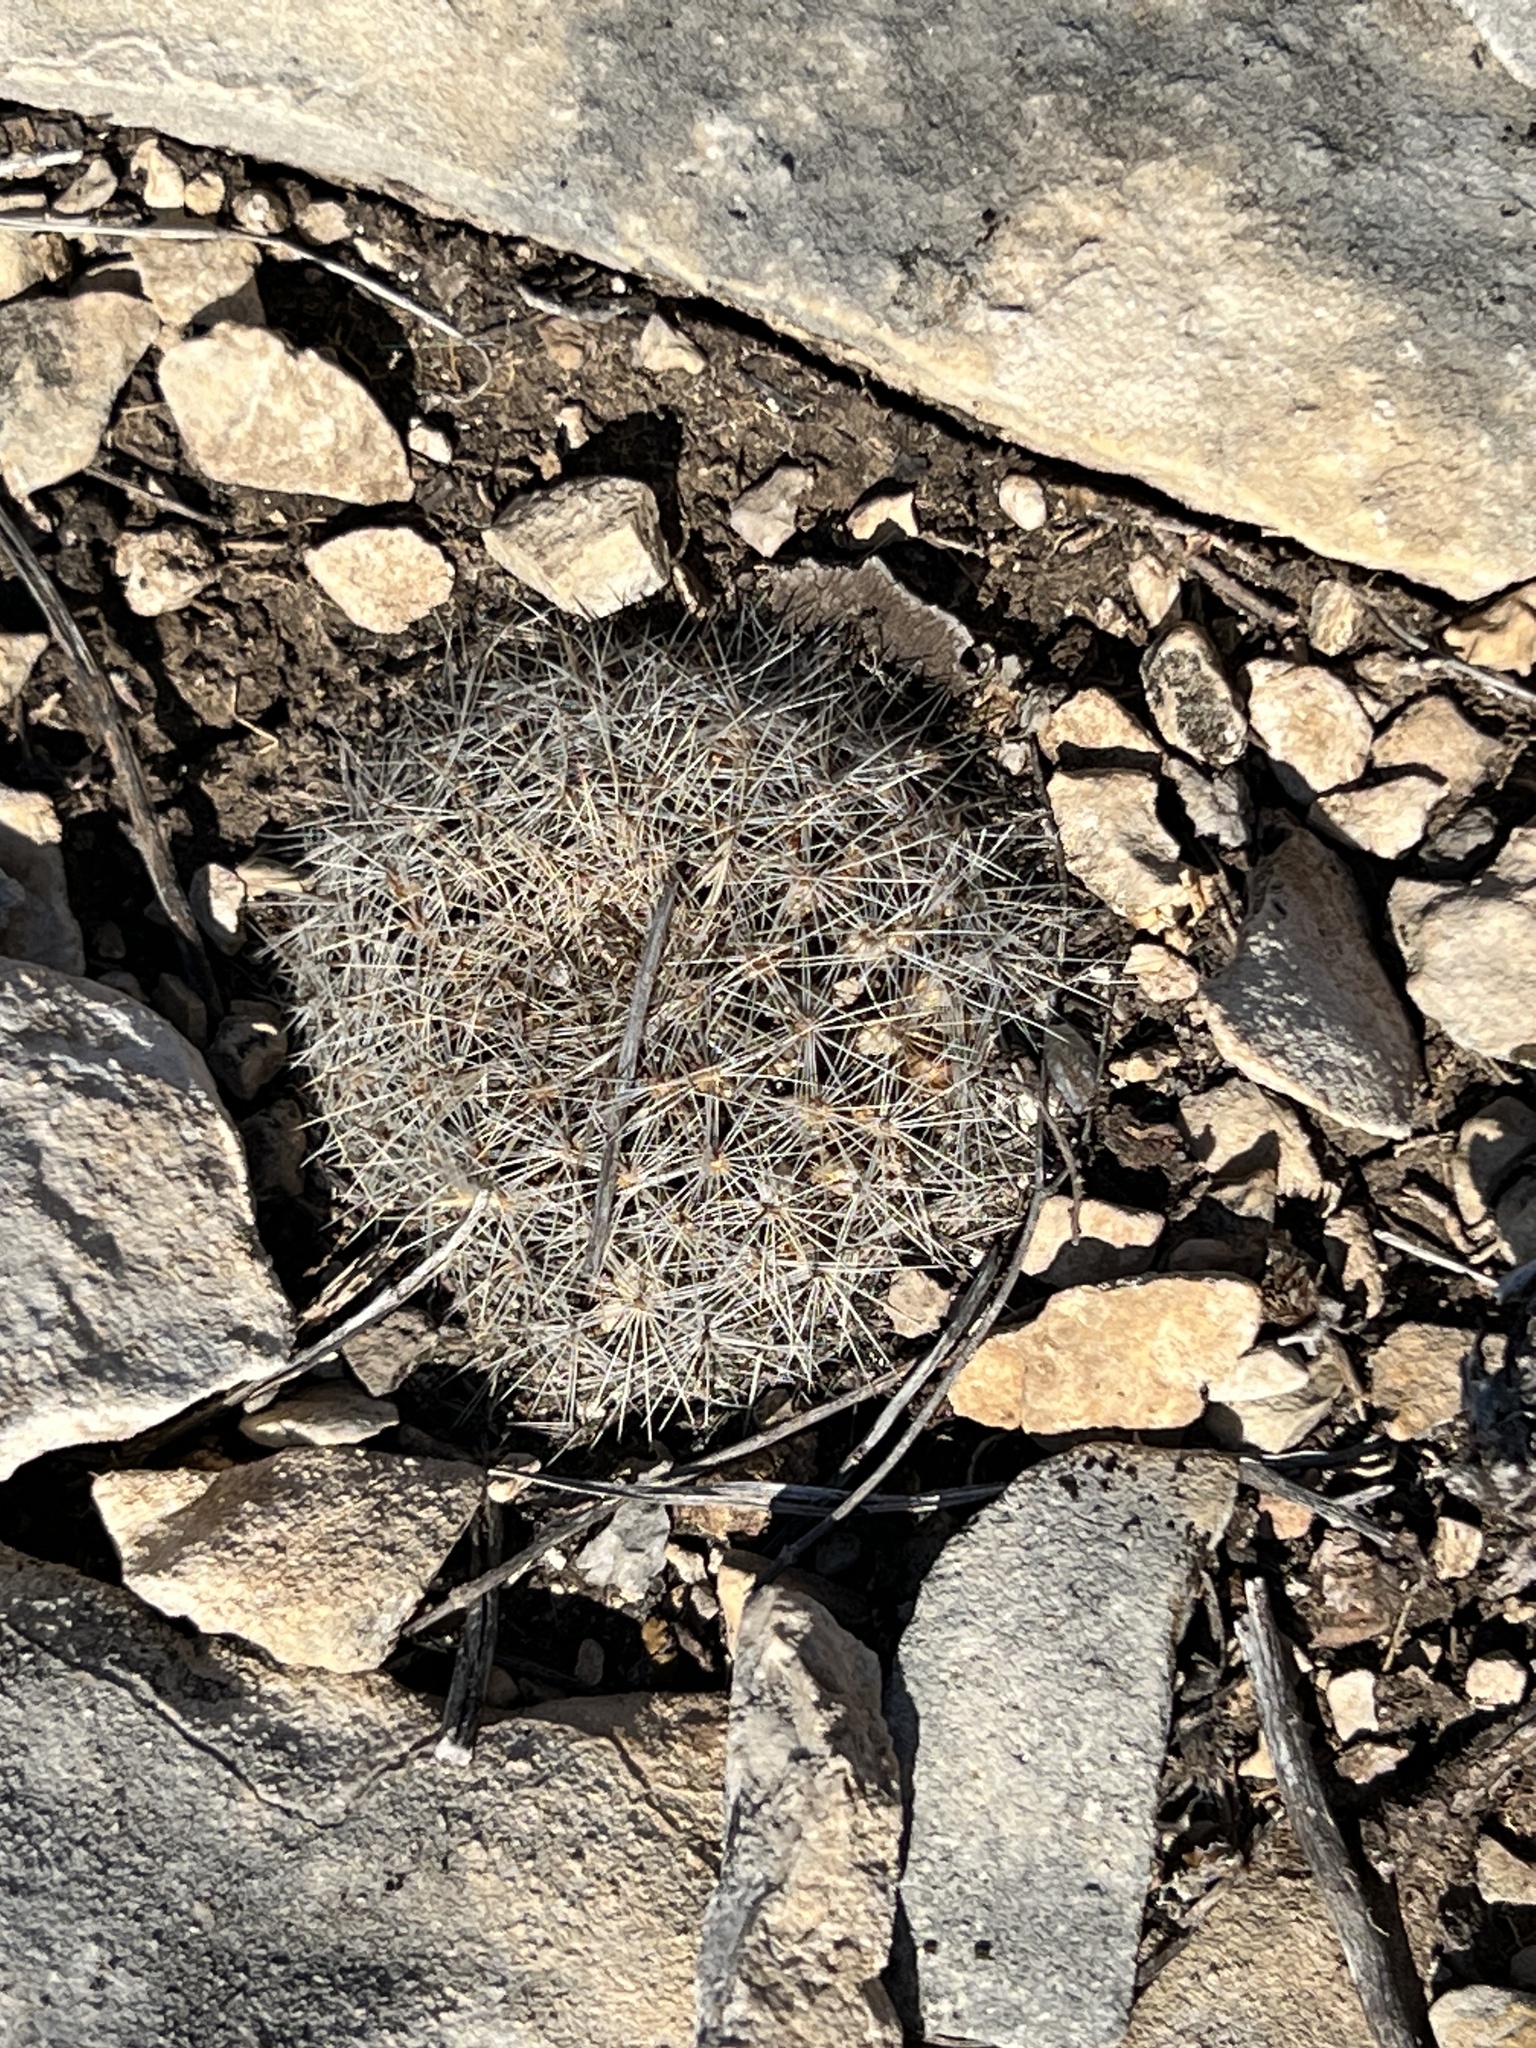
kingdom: Plantae
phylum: Tracheophyta
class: Magnoliopsida
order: Caryophyllales
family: Cactaceae
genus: Mammillaria
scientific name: Mammillaria heyderi
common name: Little nipple cactus
